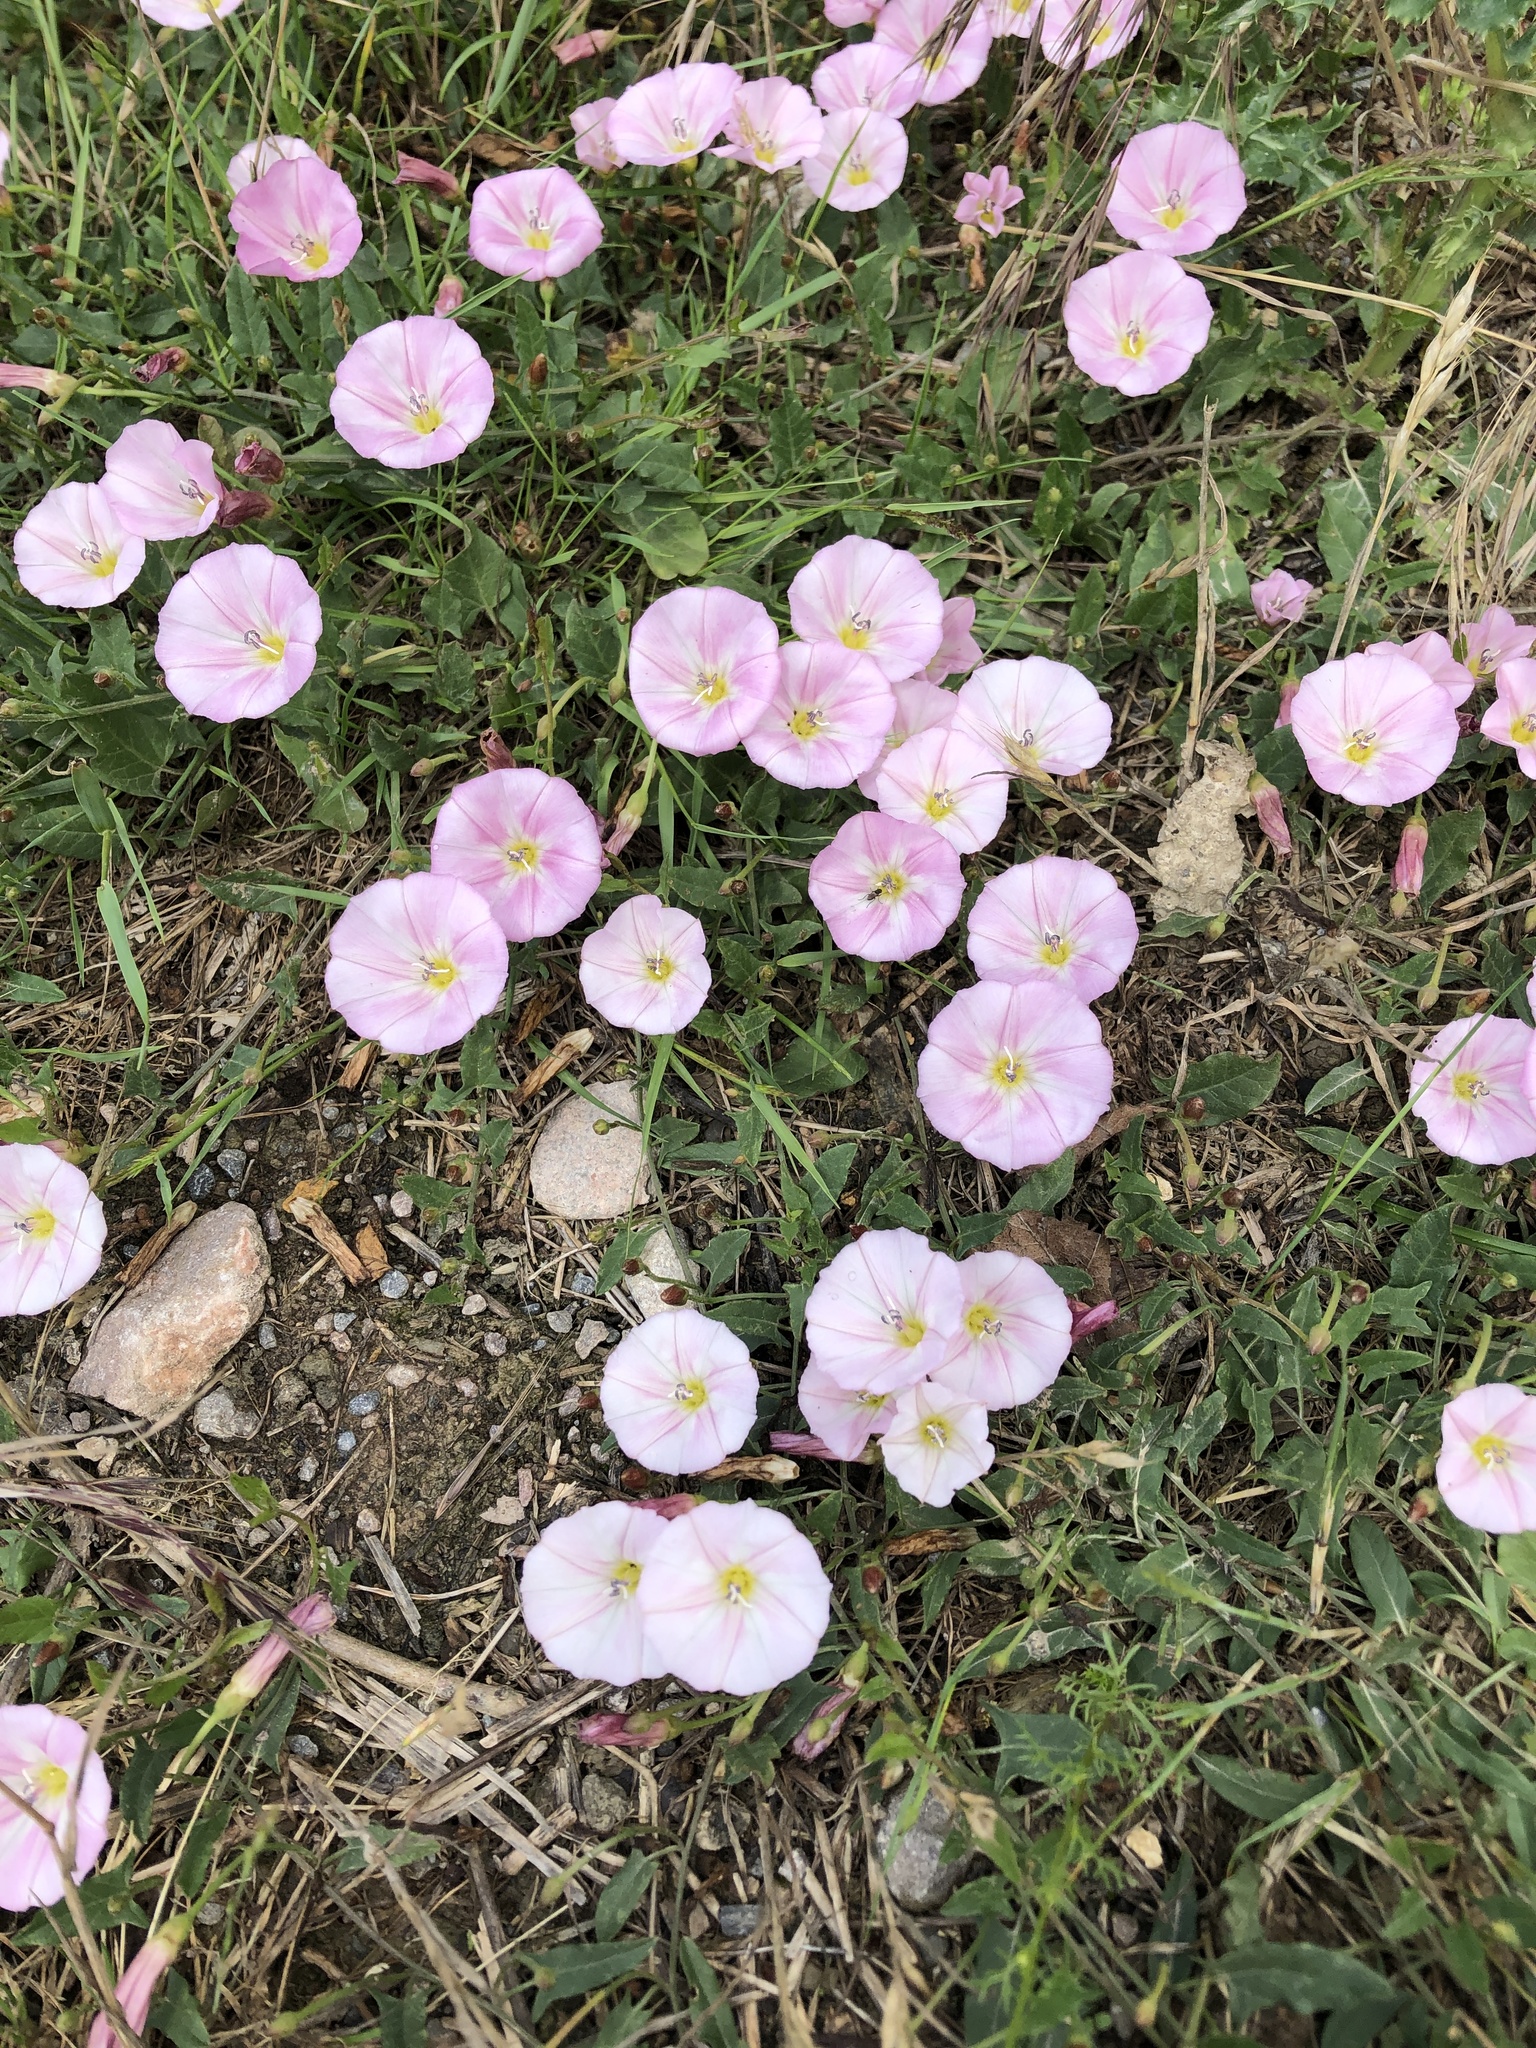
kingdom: Plantae
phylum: Tracheophyta
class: Magnoliopsida
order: Solanales
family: Convolvulaceae
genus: Convolvulus
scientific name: Convolvulus arvensis
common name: Field bindweed
